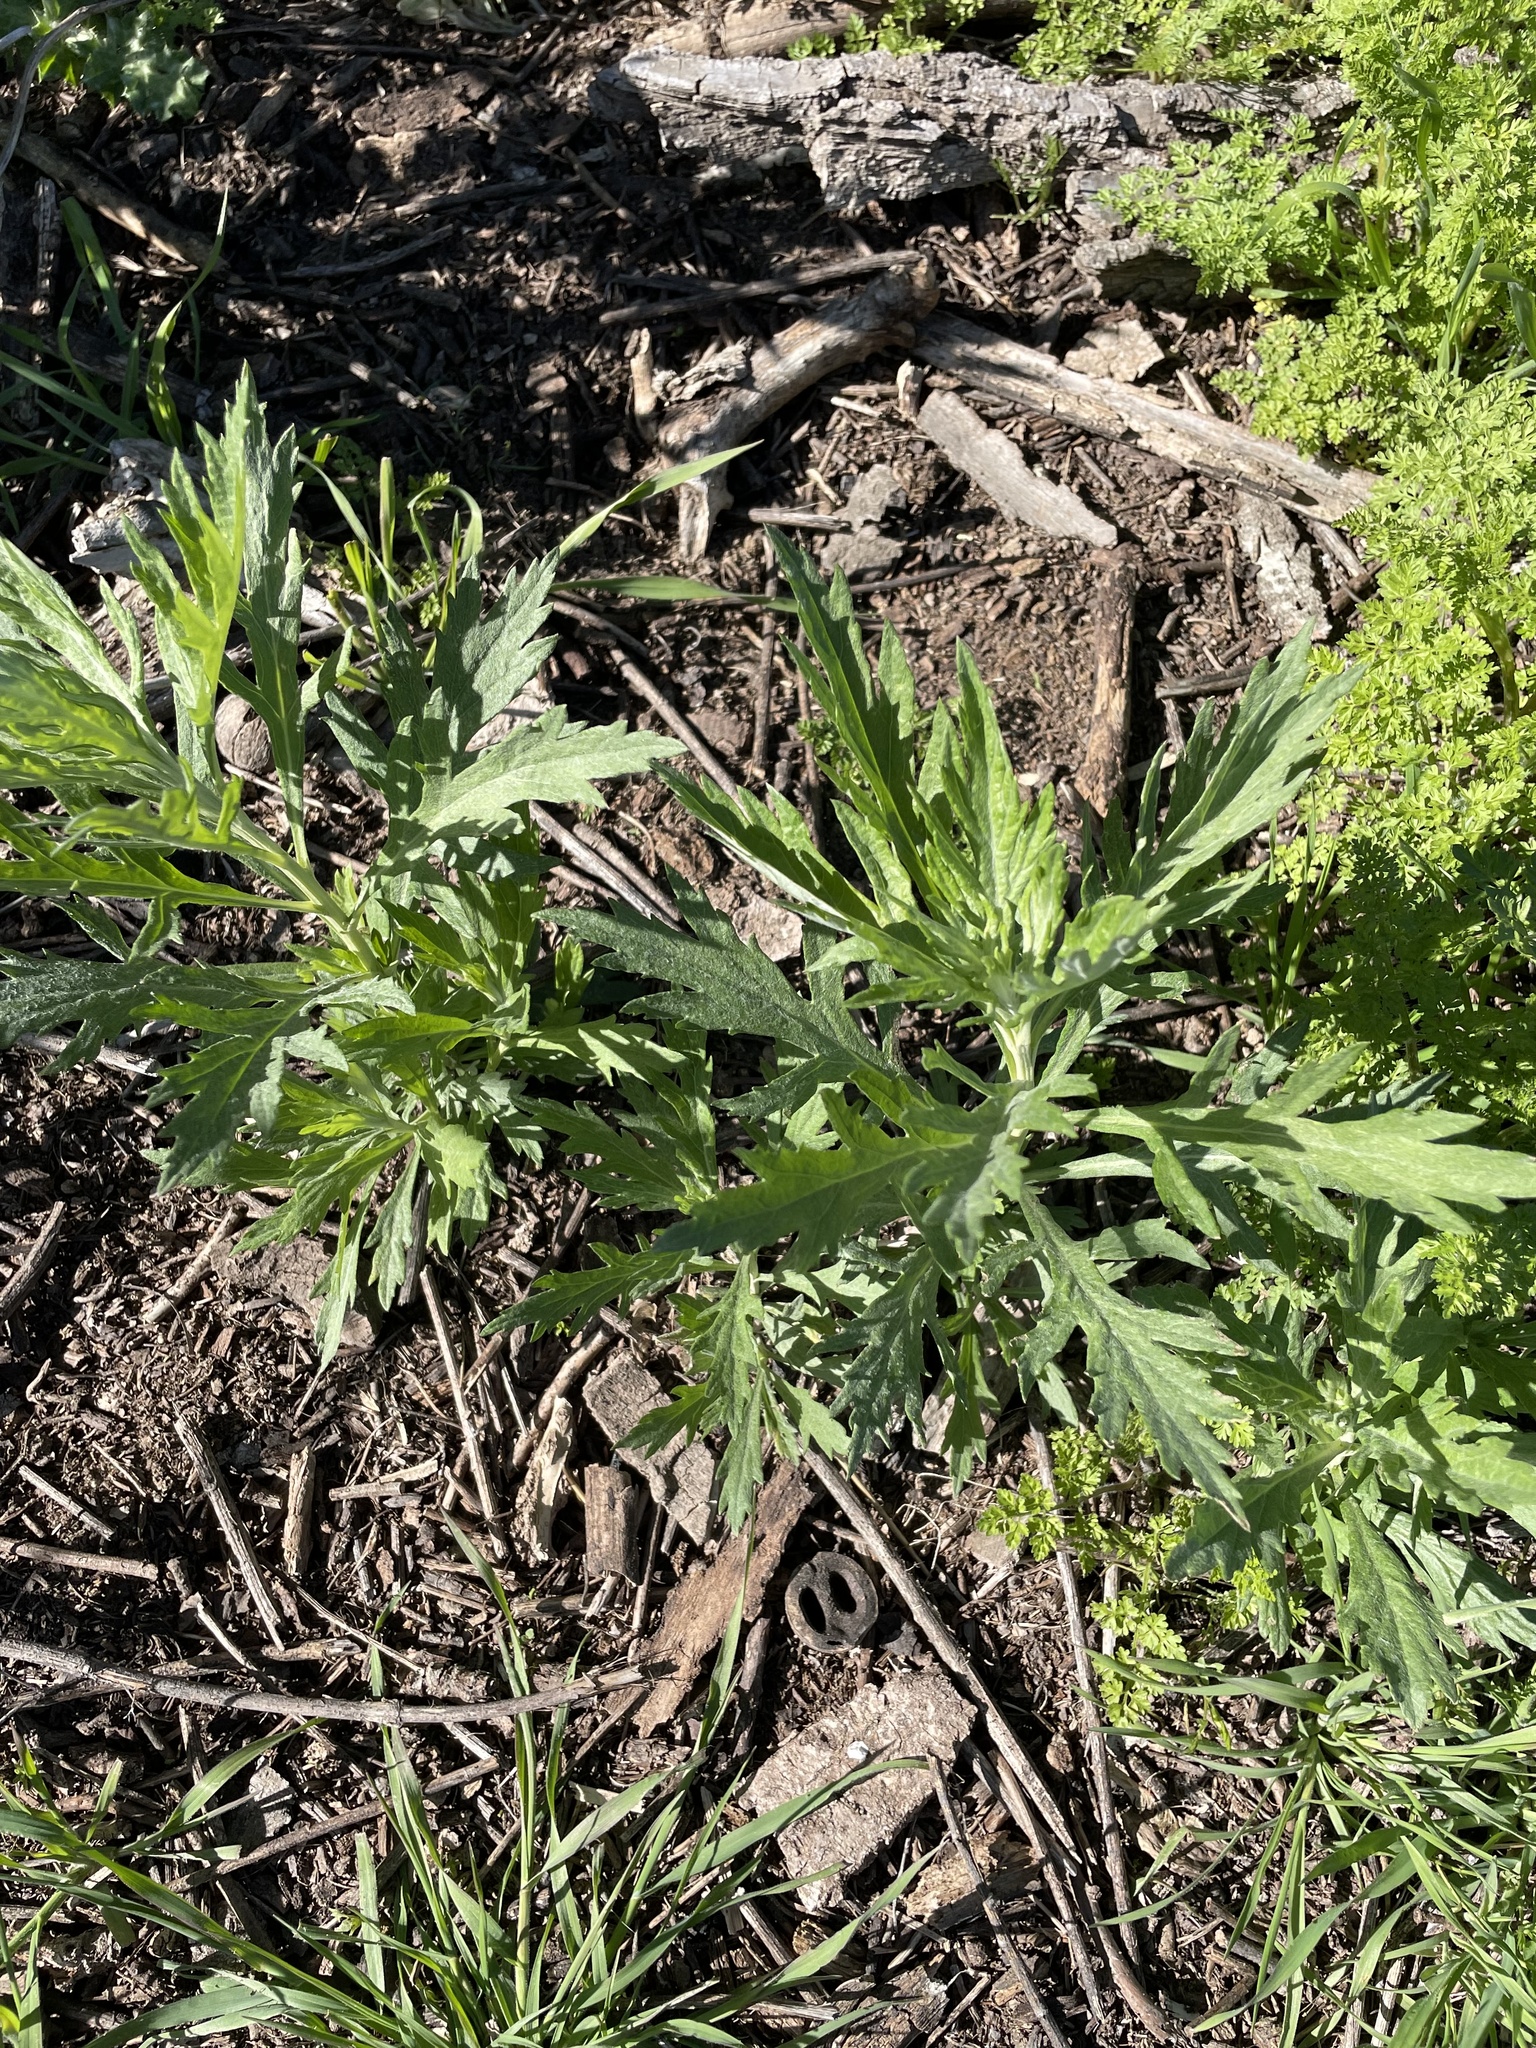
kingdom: Plantae
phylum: Tracheophyta
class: Magnoliopsida
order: Asterales
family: Asteraceae
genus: Artemisia
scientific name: Artemisia douglasiana
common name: Northwest mugwort
